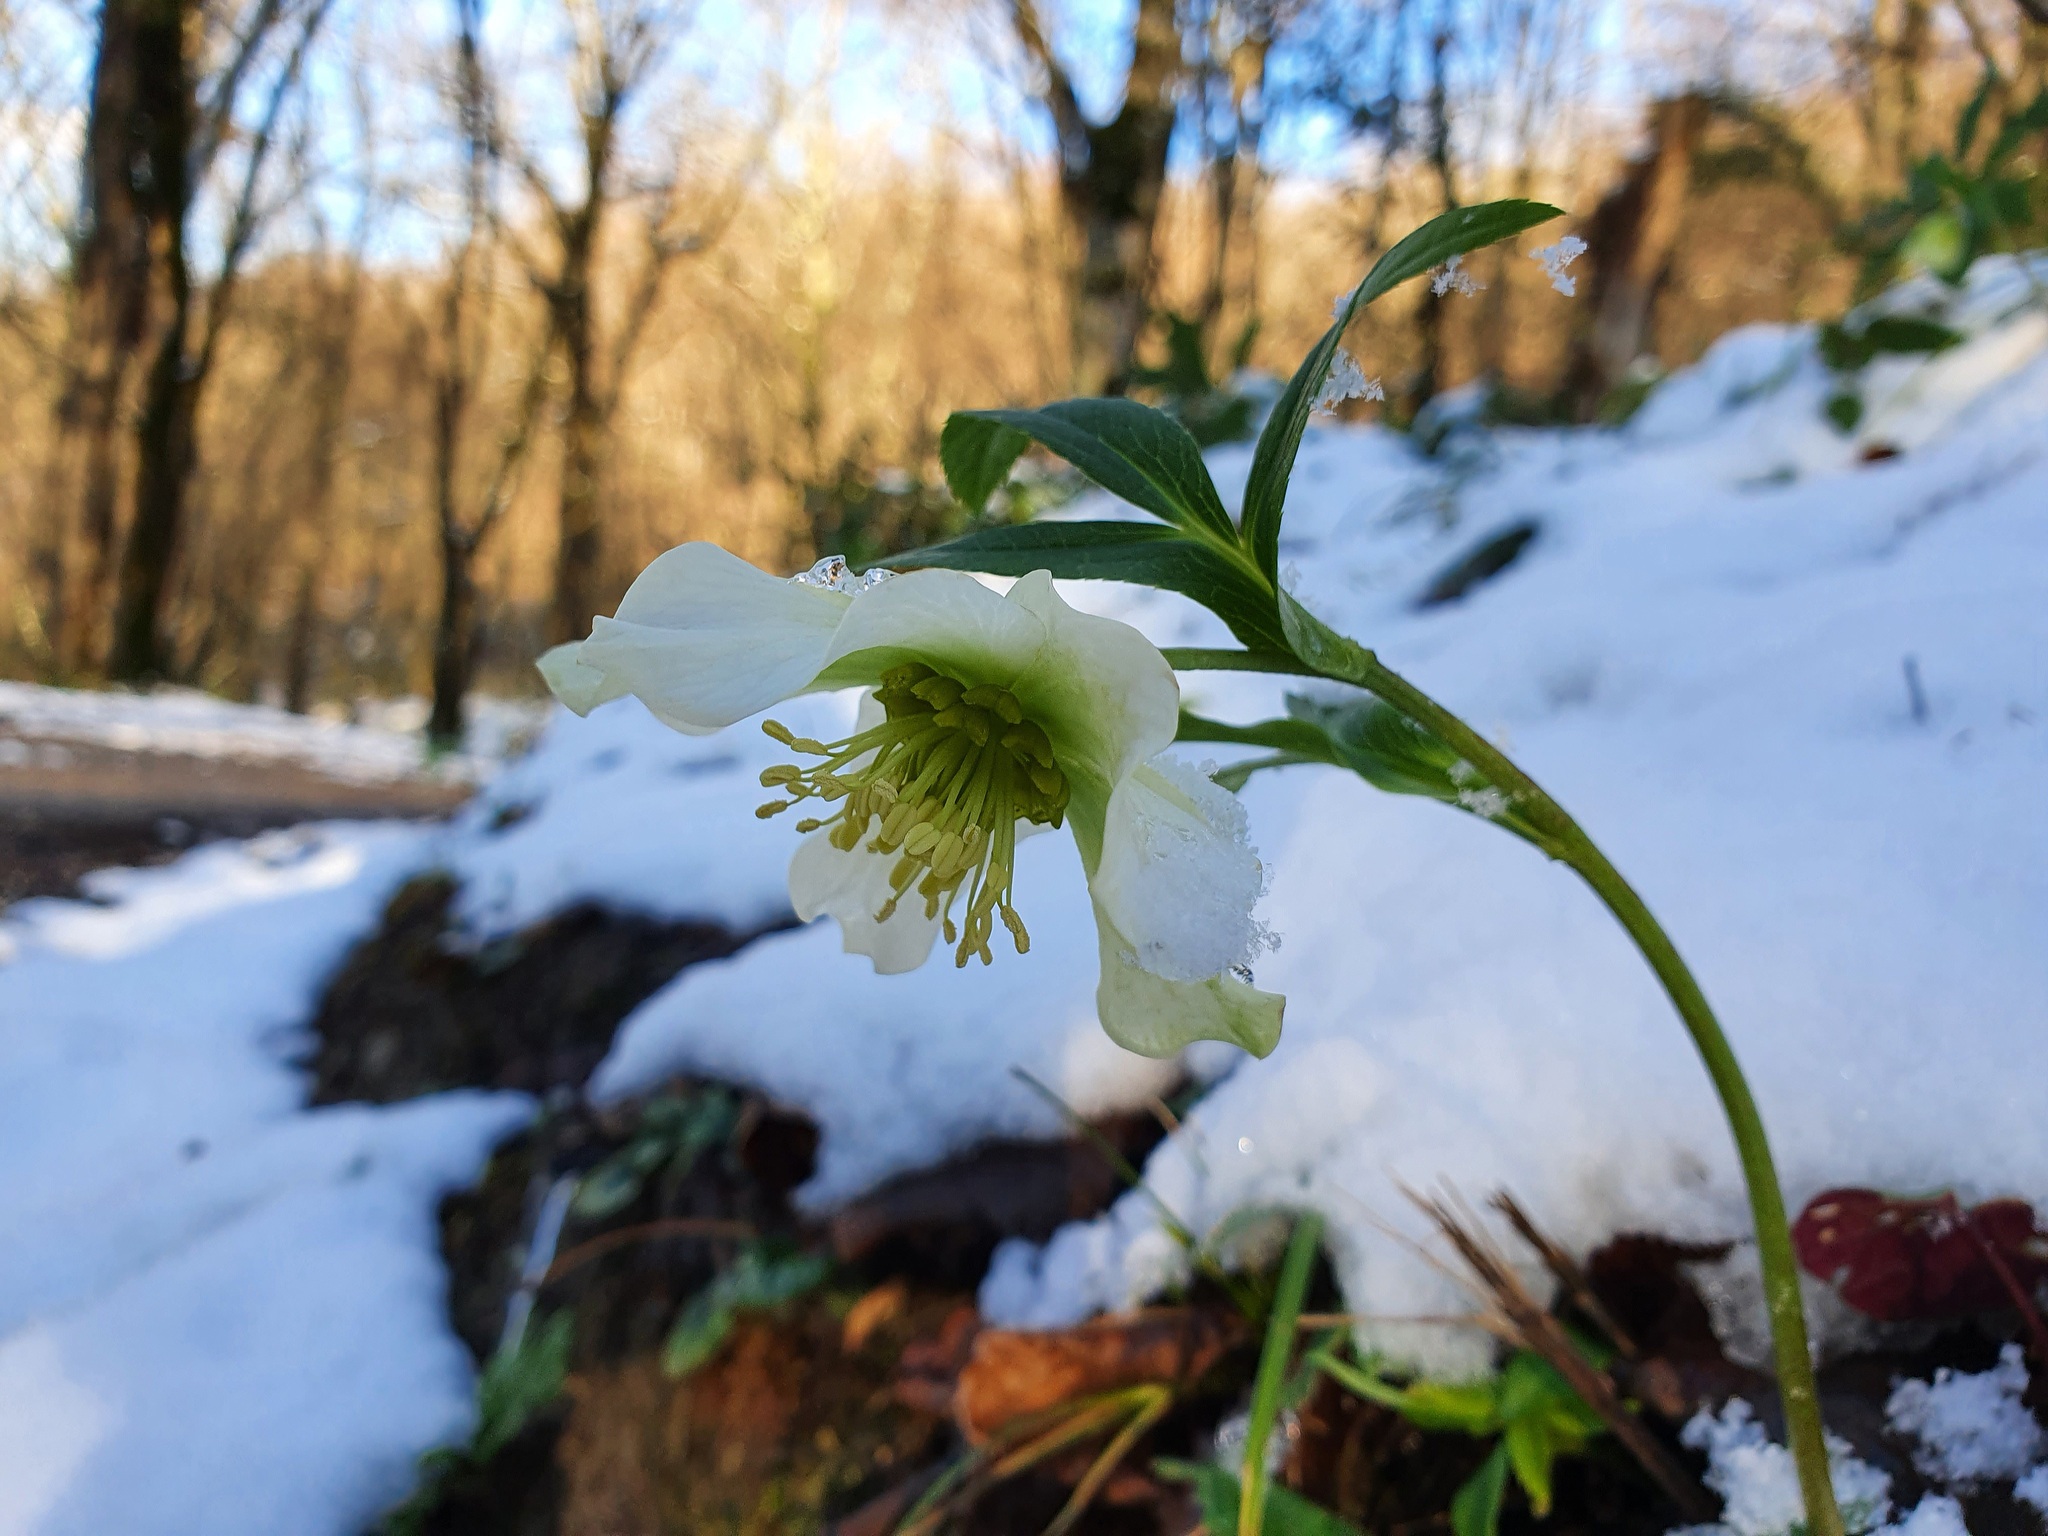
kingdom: Plantae
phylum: Tracheophyta
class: Magnoliopsida
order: Ranunculales
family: Ranunculaceae
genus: Helleborus
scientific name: Helleborus orientalis
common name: Lenten-rose
